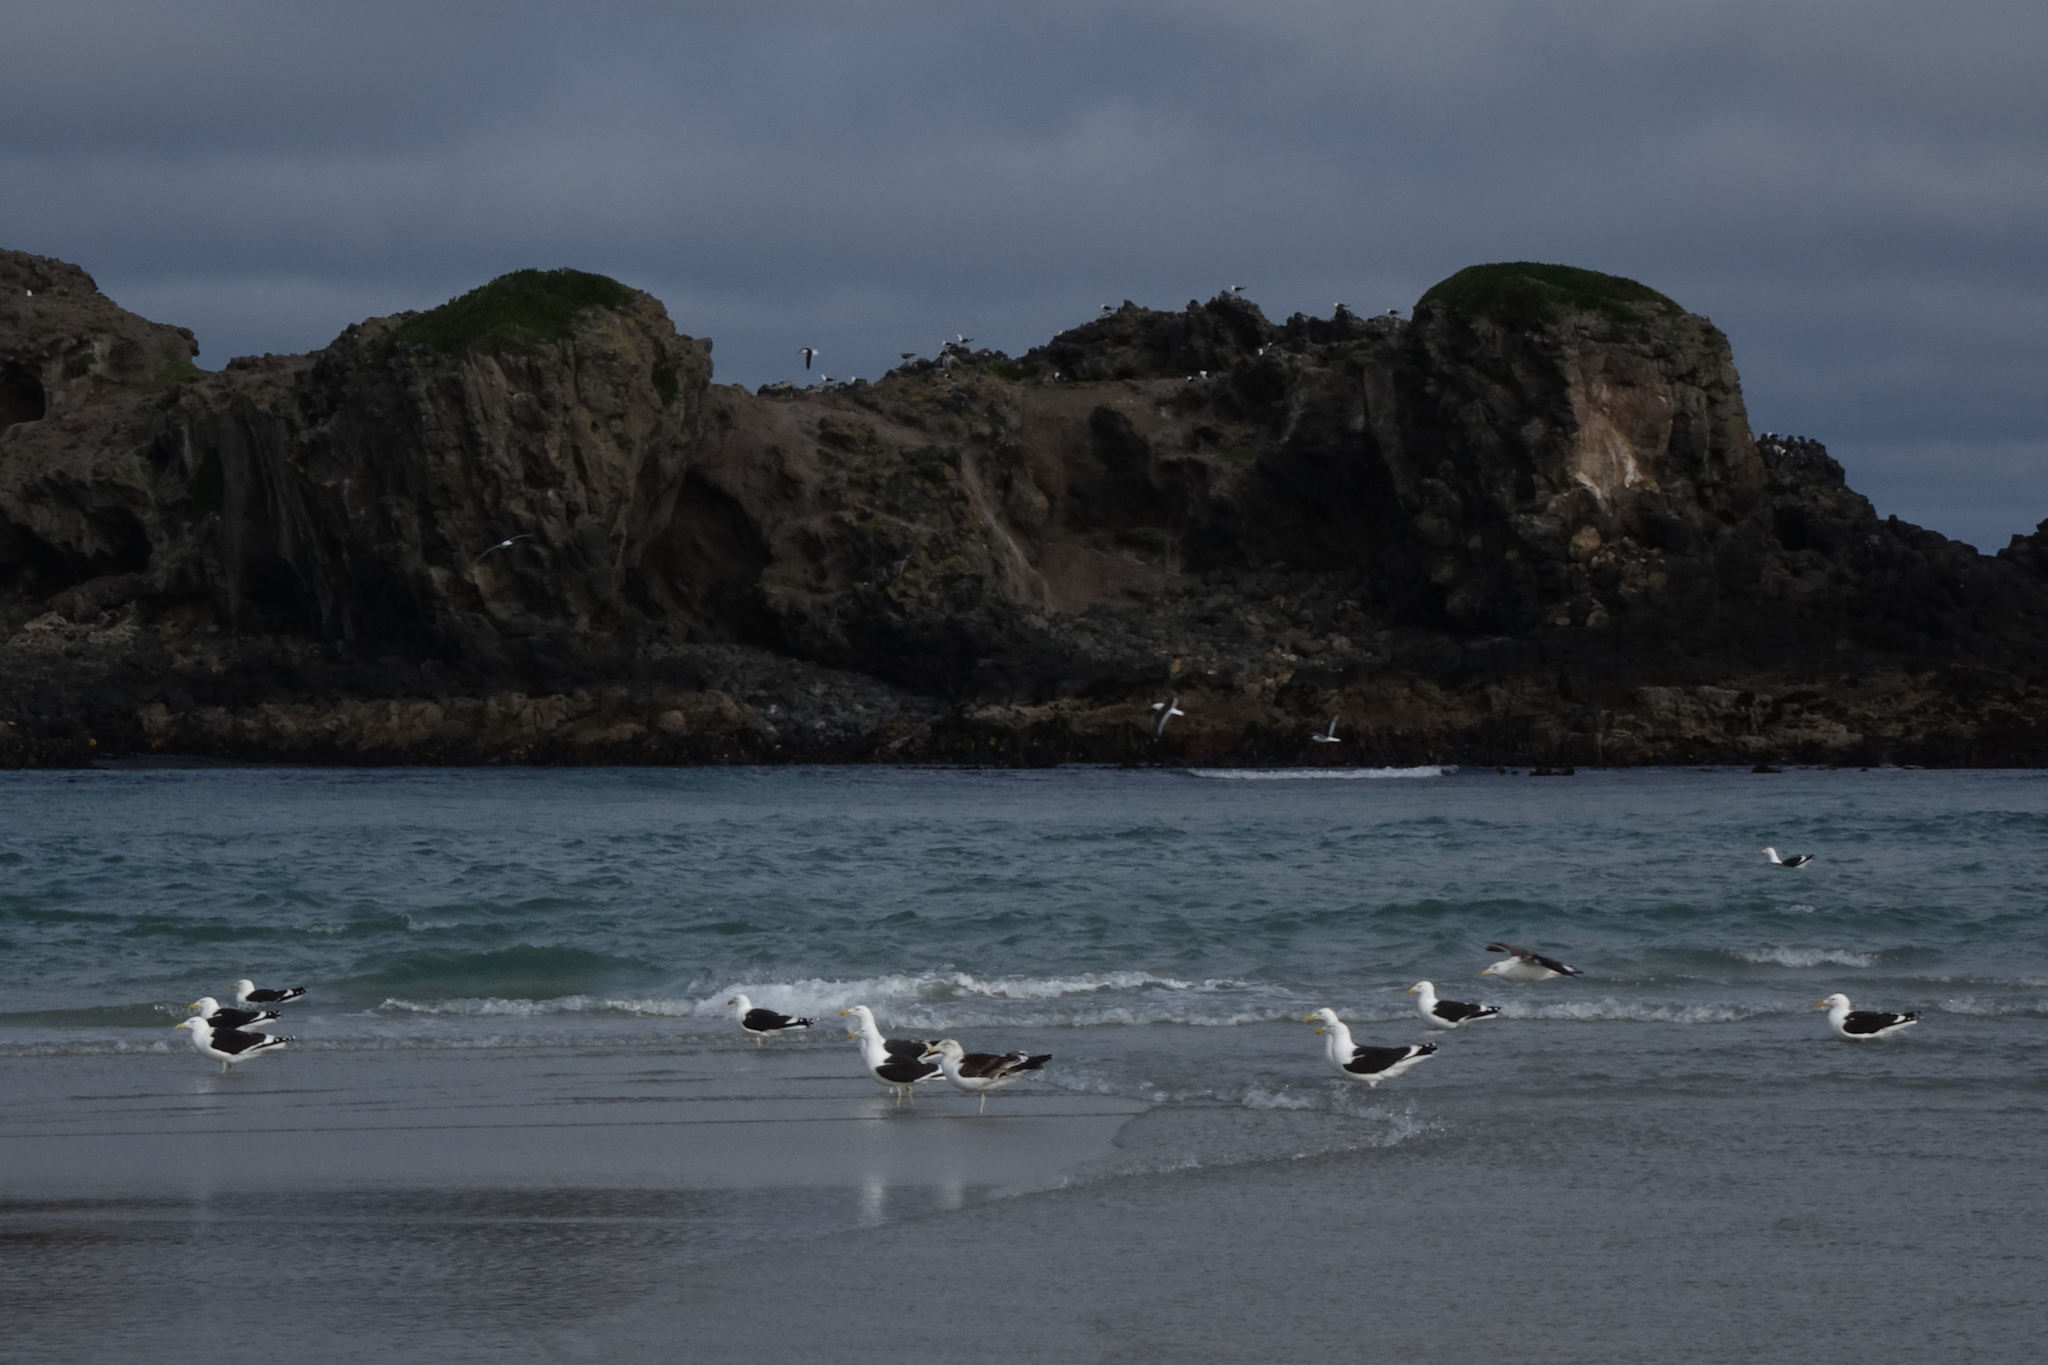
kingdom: Animalia
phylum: Chordata
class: Aves
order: Charadriiformes
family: Laridae
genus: Larus
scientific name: Larus dominicanus
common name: Kelp gull
